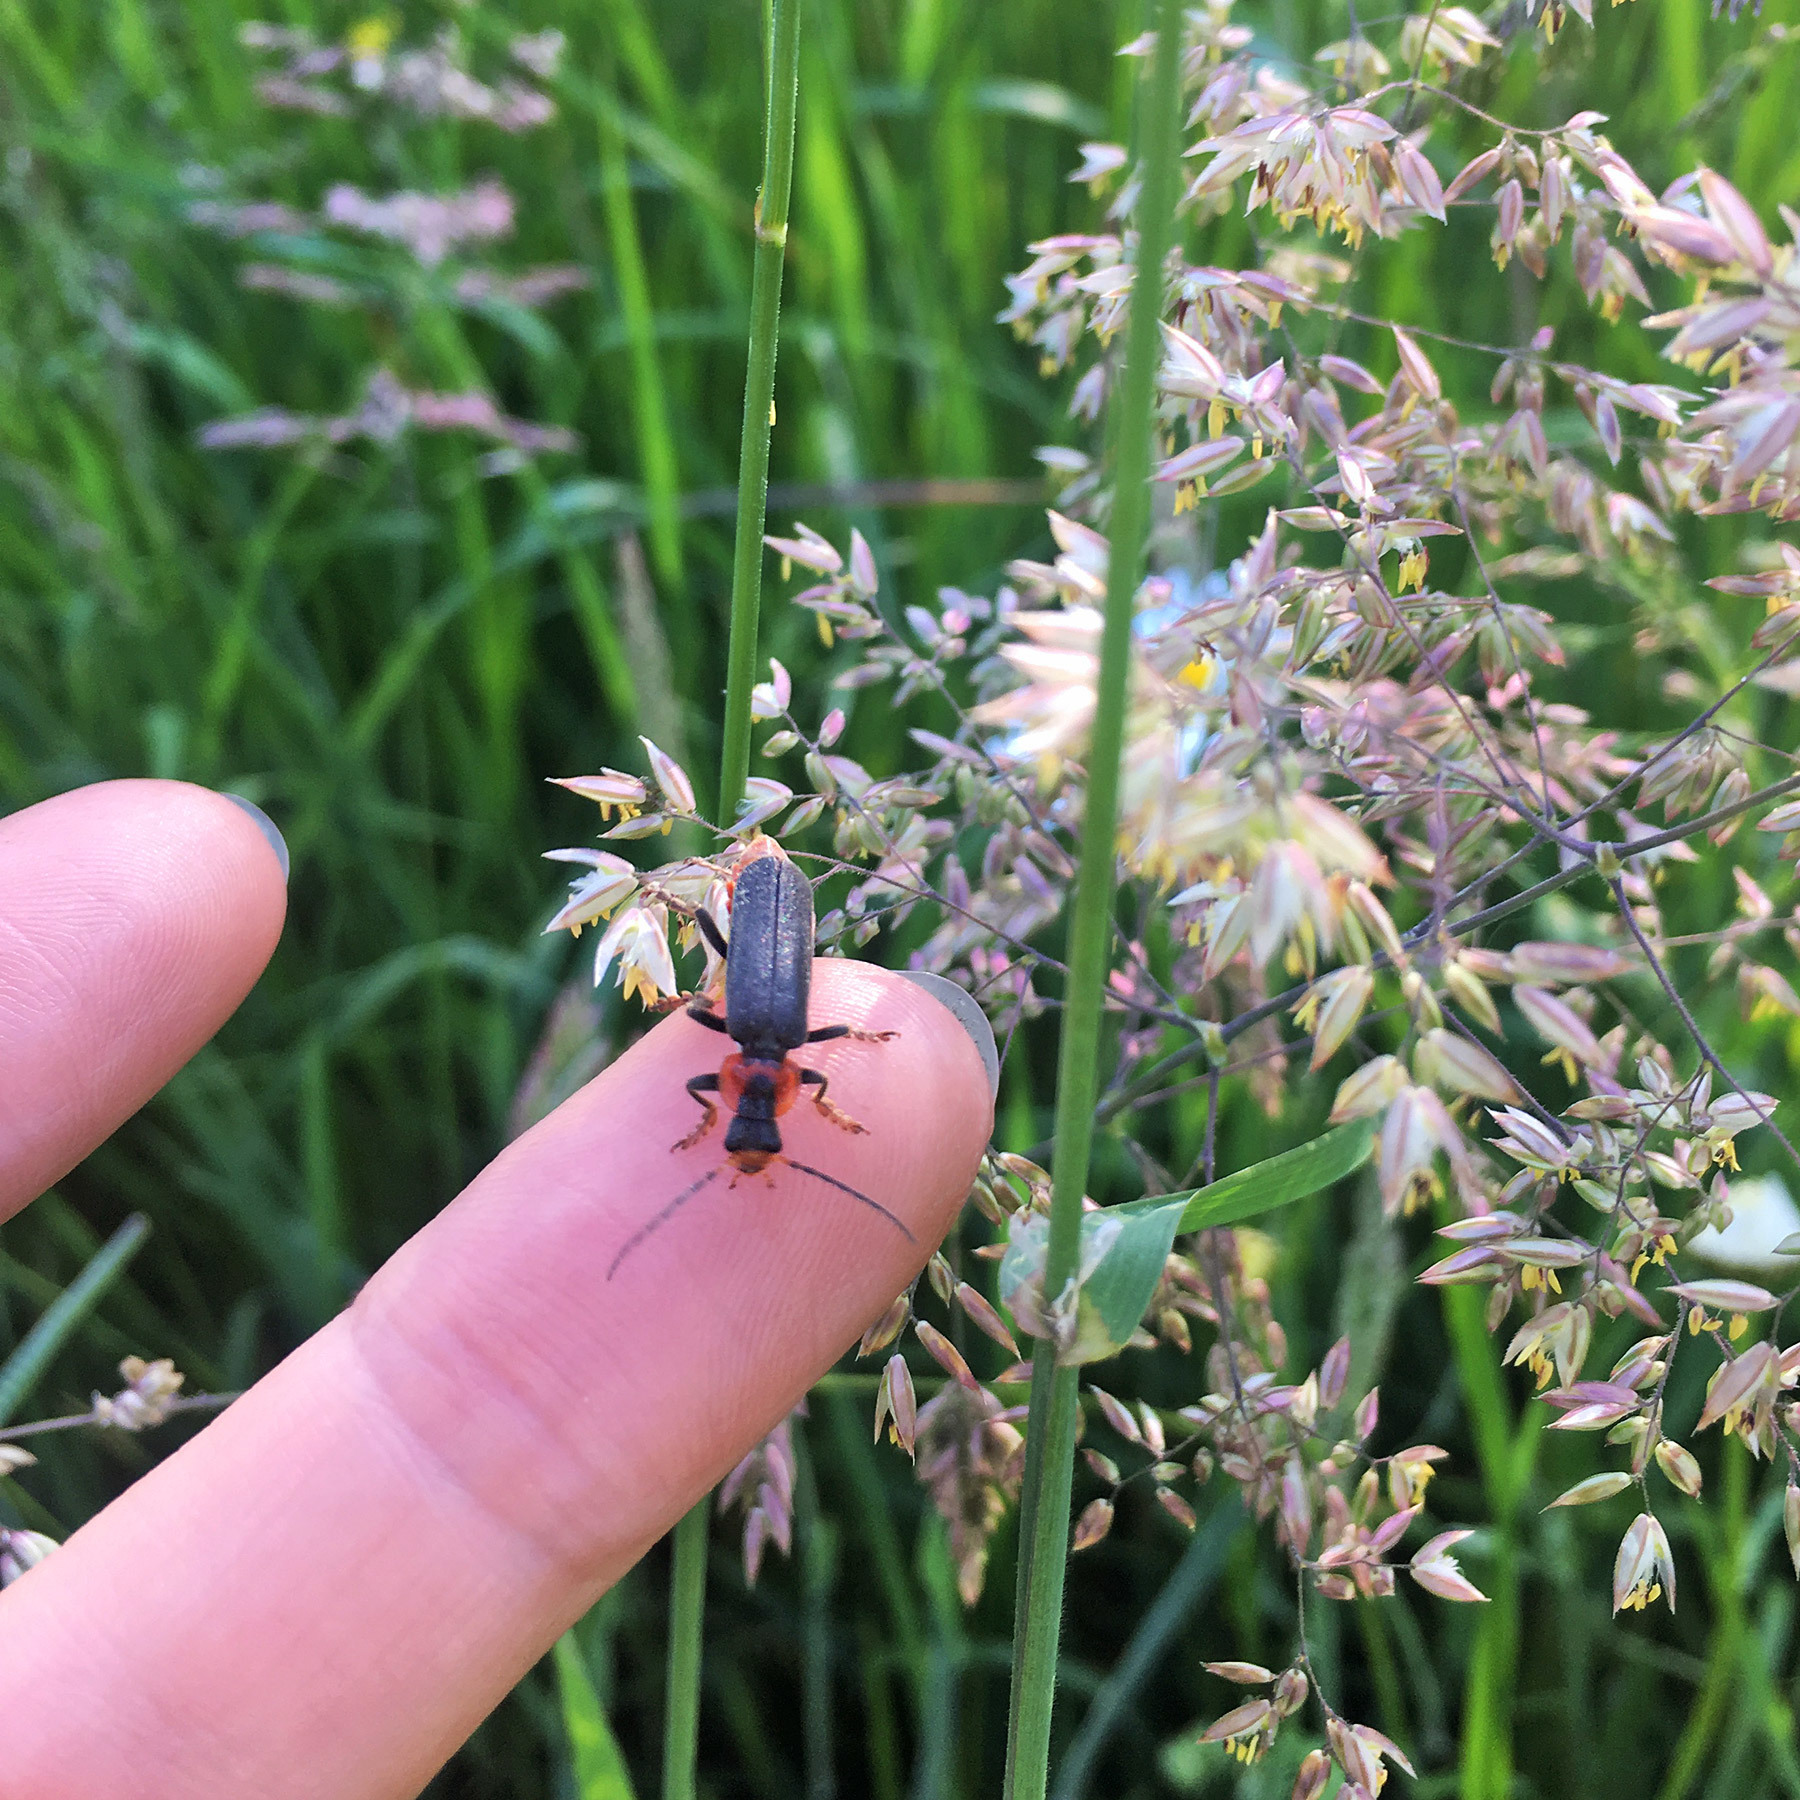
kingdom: Animalia
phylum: Arthropoda
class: Insecta
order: Coleoptera
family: Cantharidae
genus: Cantharis
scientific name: Cantharis fusca
